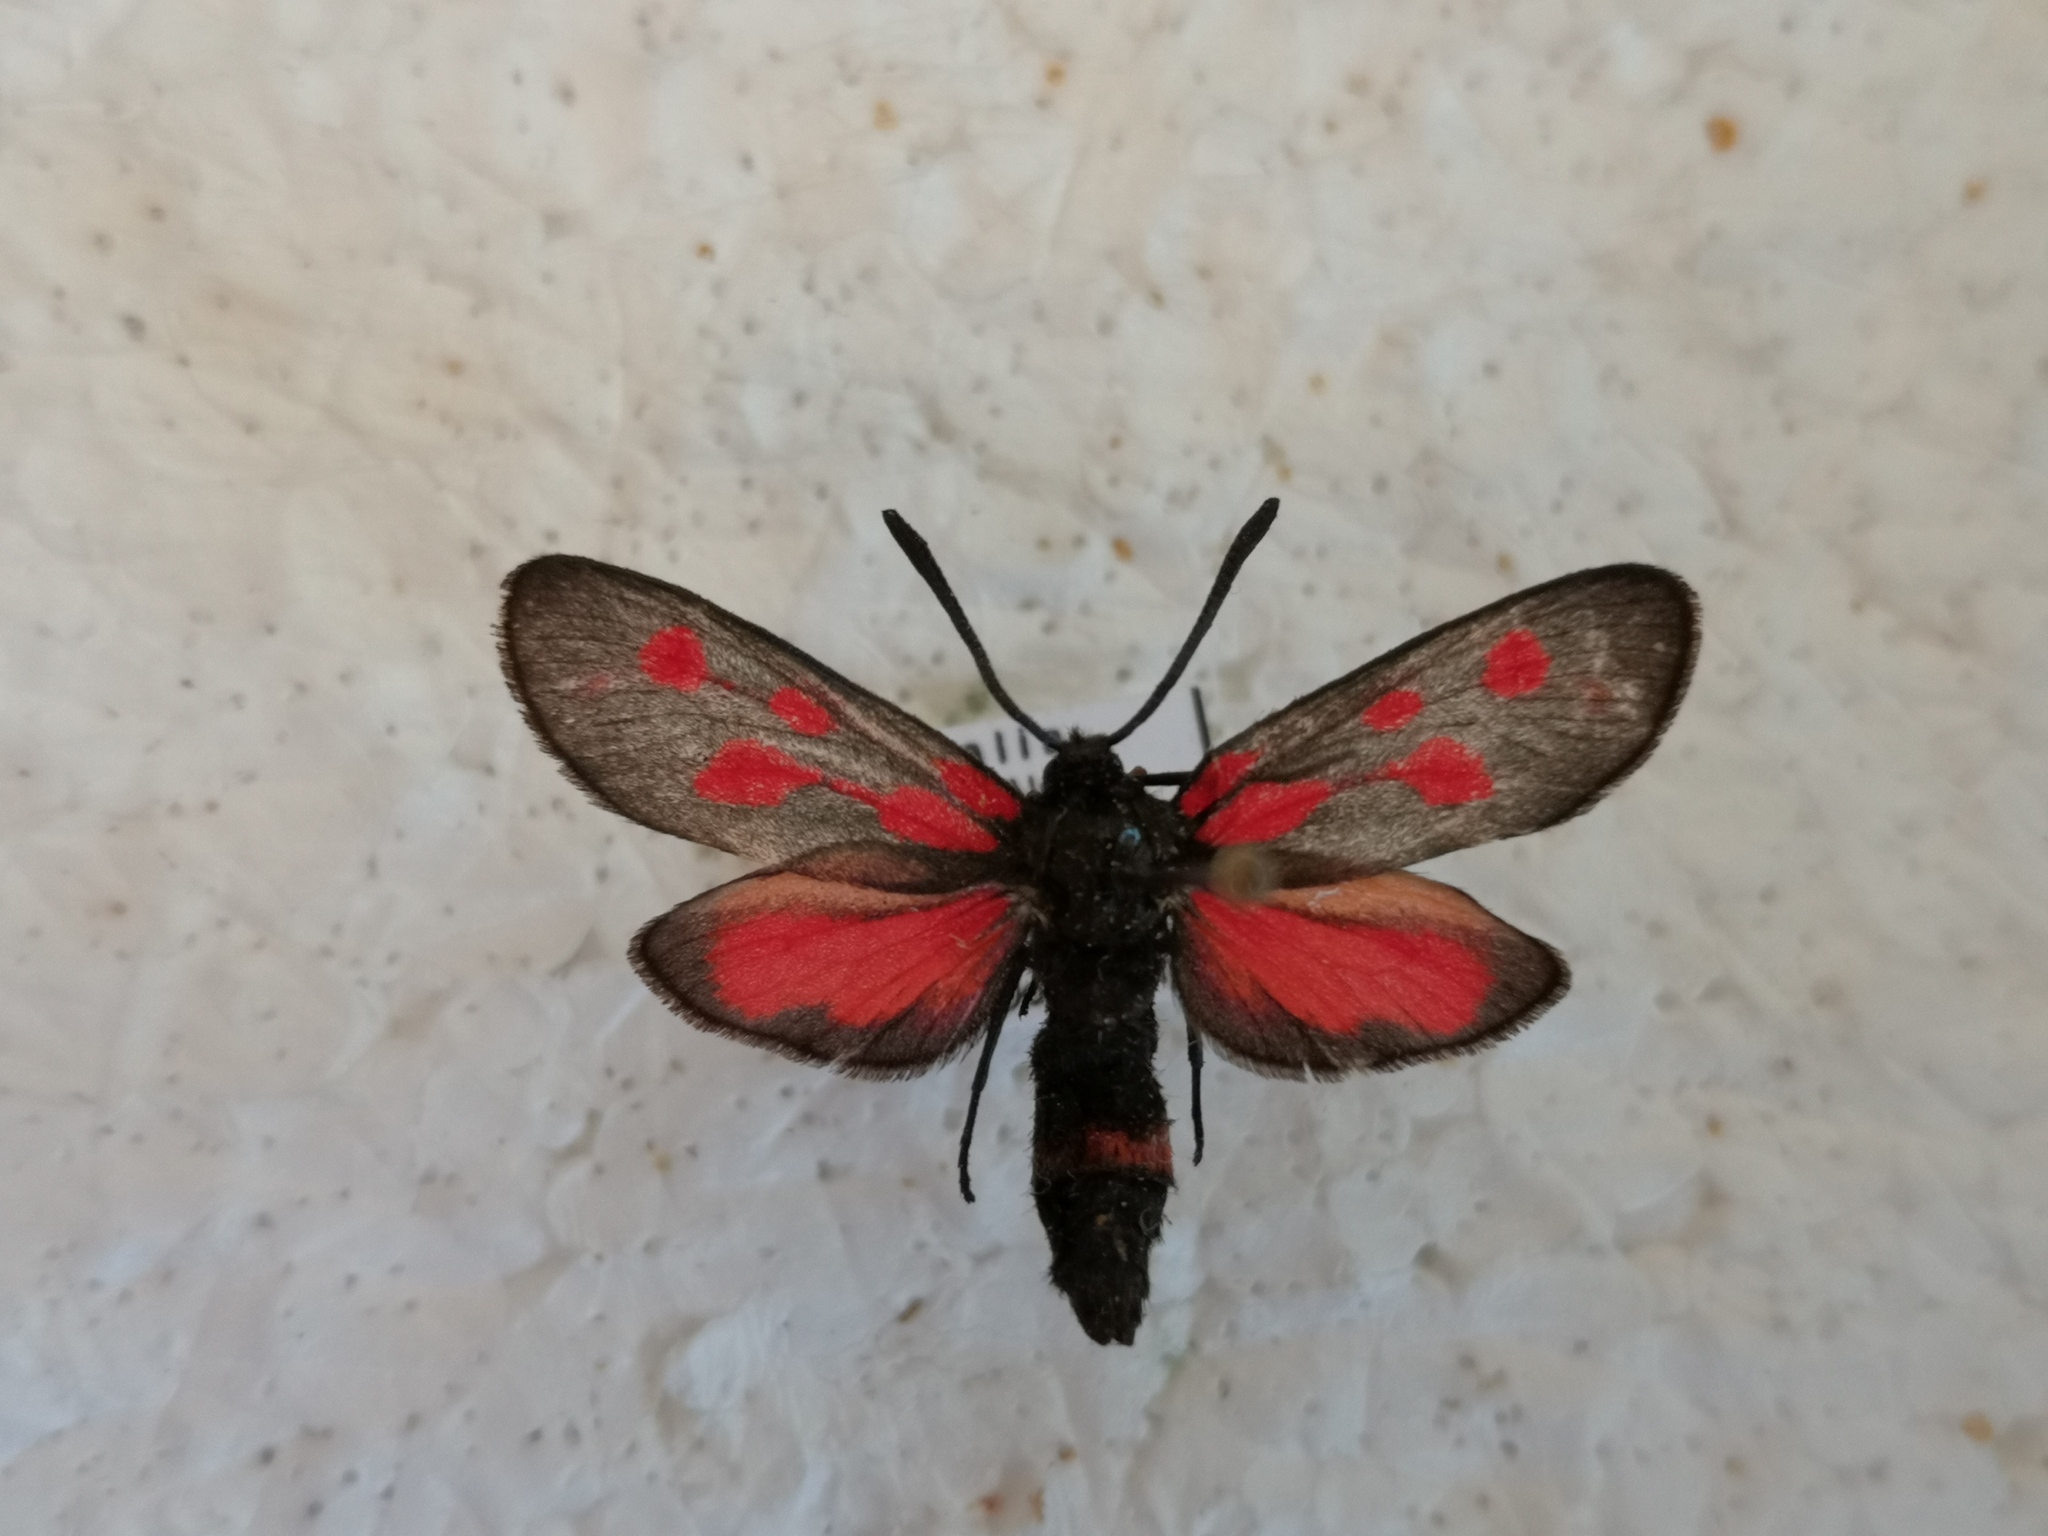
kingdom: Animalia
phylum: Arthropoda
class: Insecta
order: Lepidoptera
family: Zygaenidae
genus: Zygaena
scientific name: Zygaena viciae
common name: New forest burnet
